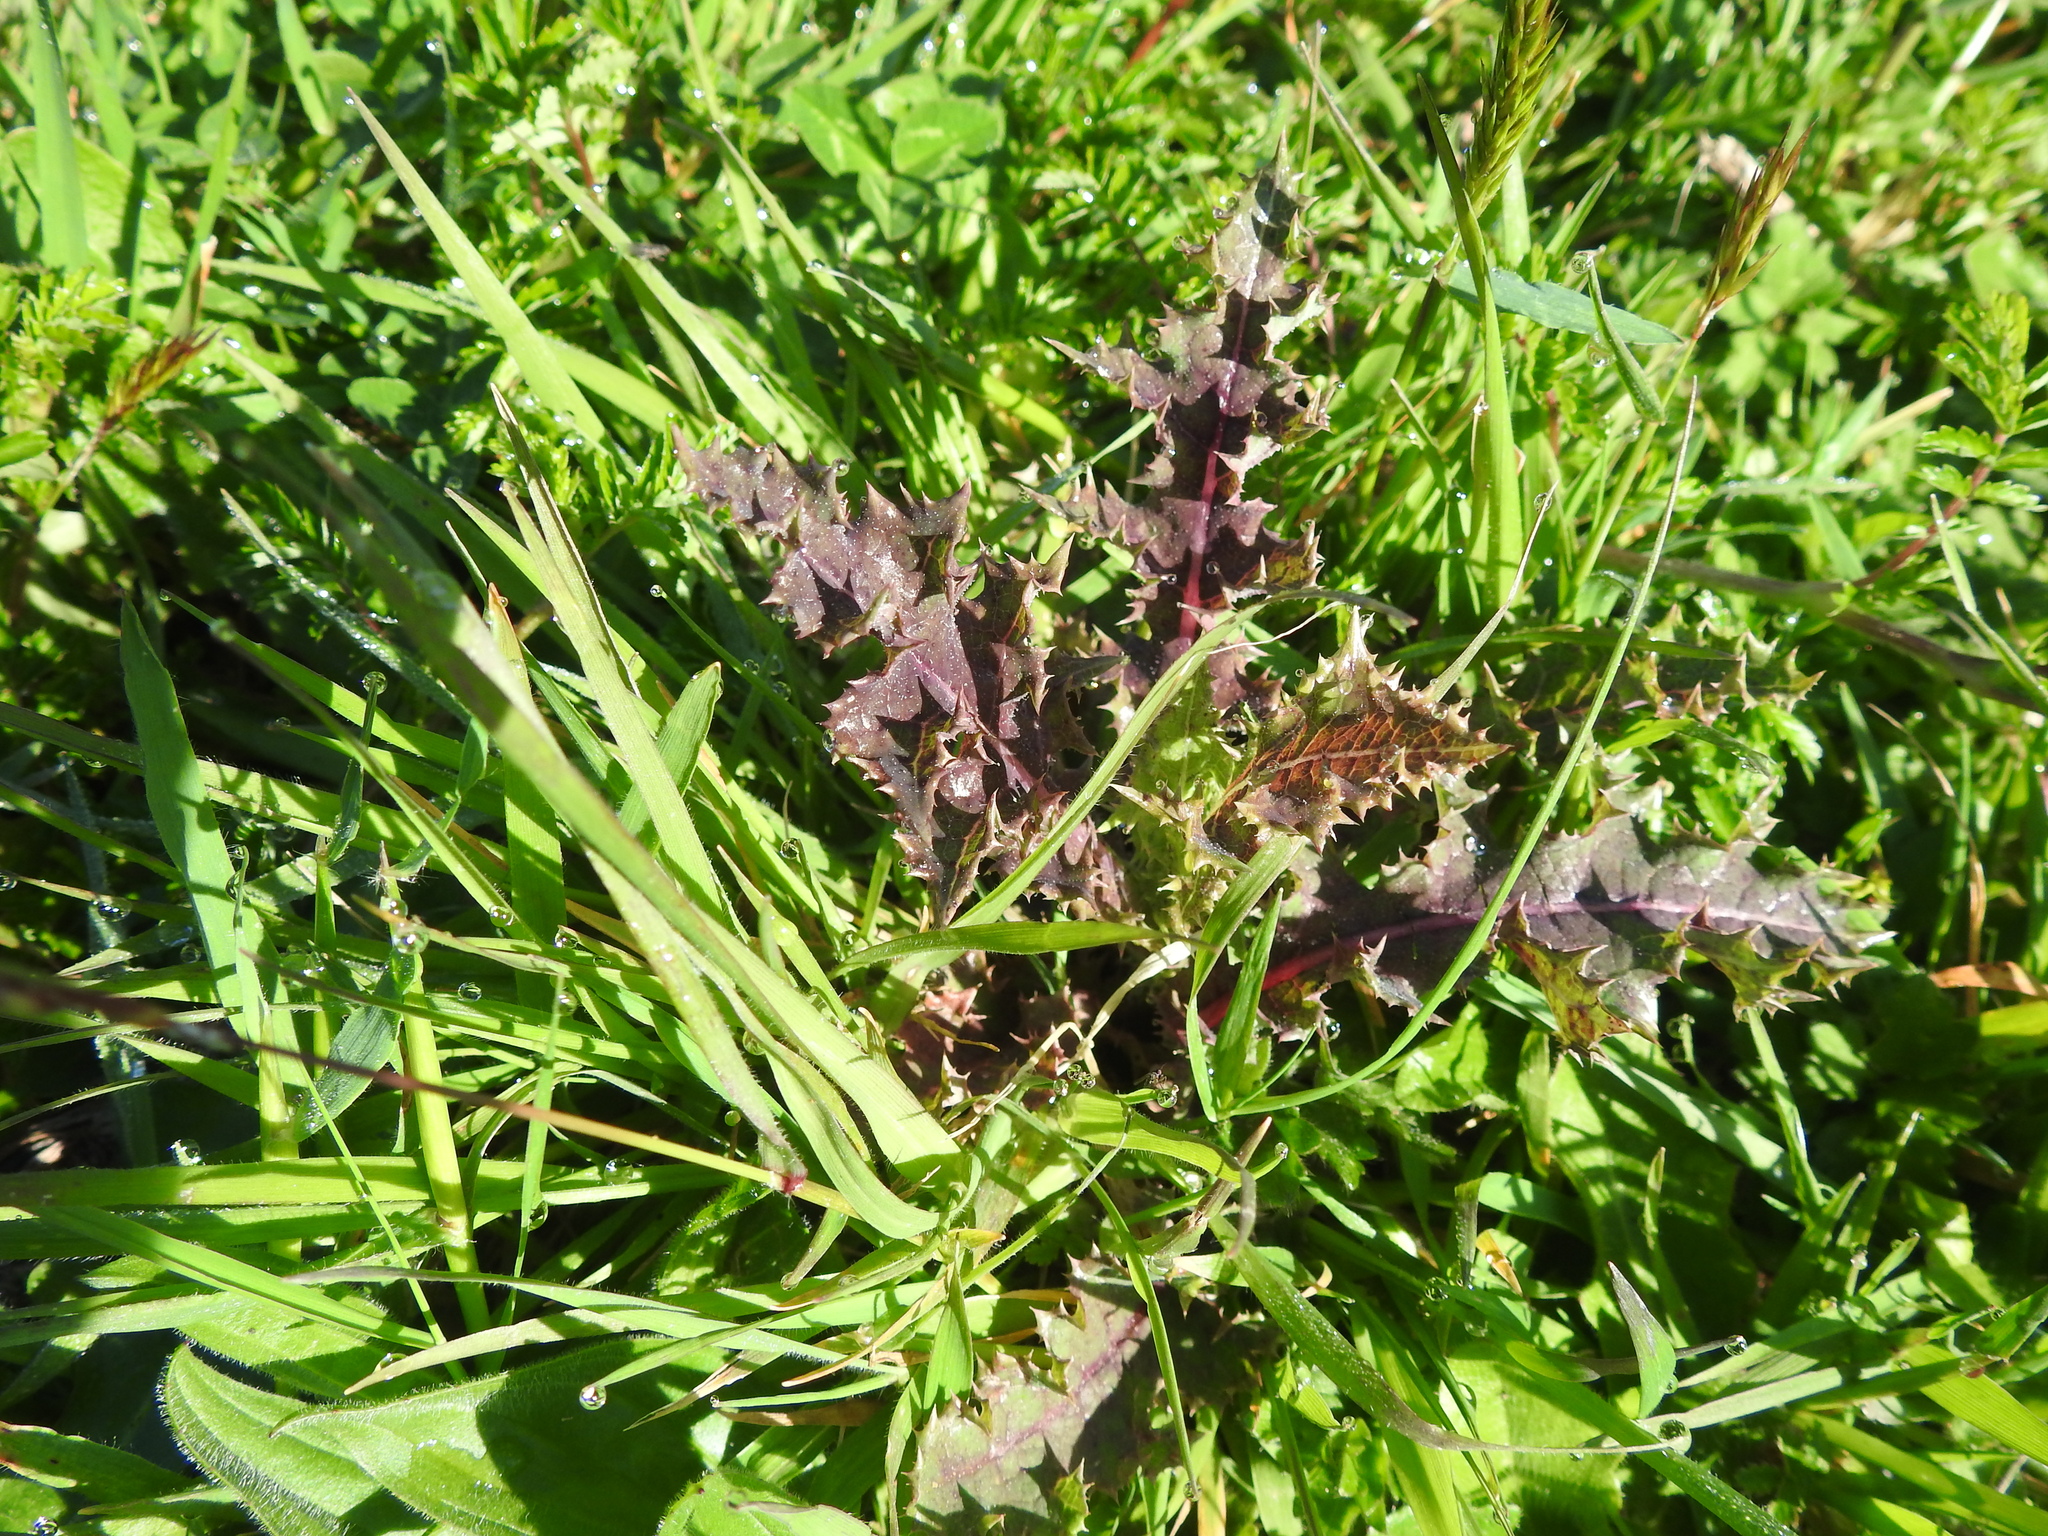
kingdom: Plantae
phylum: Tracheophyta
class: Magnoliopsida
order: Asterales
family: Asteraceae
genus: Sonchus
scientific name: Sonchus asper
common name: Prickly sow-thistle
